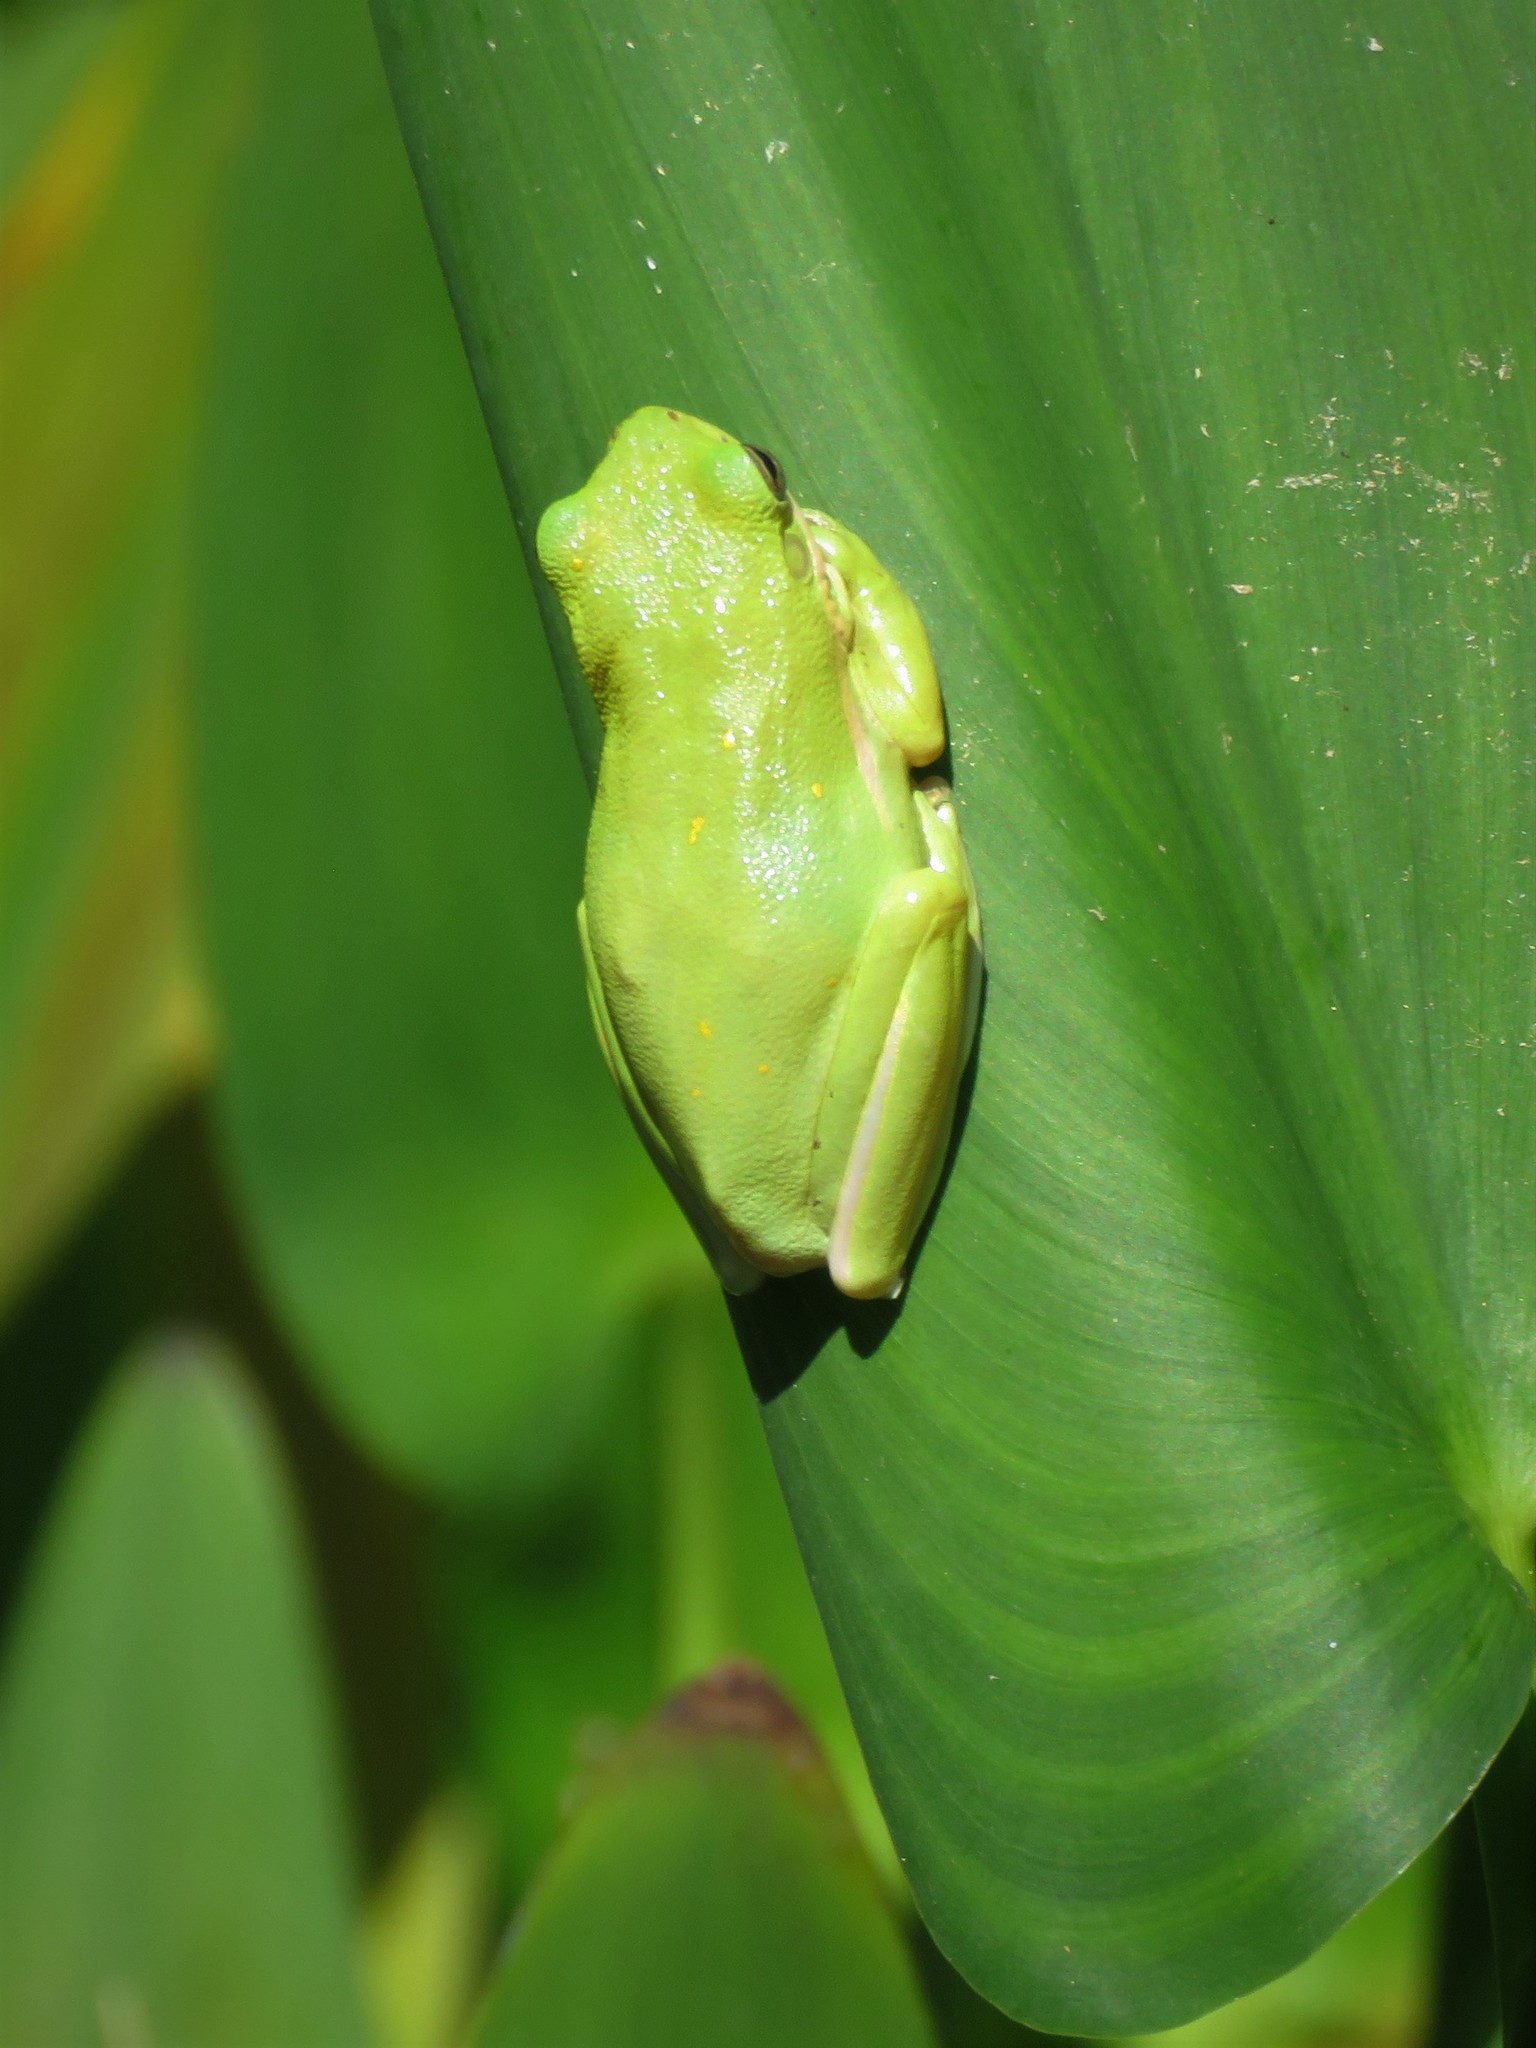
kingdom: Animalia
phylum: Chordata
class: Amphibia
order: Anura
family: Hylidae
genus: Dryophytes
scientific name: Dryophytes cinereus
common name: Green treefrog
